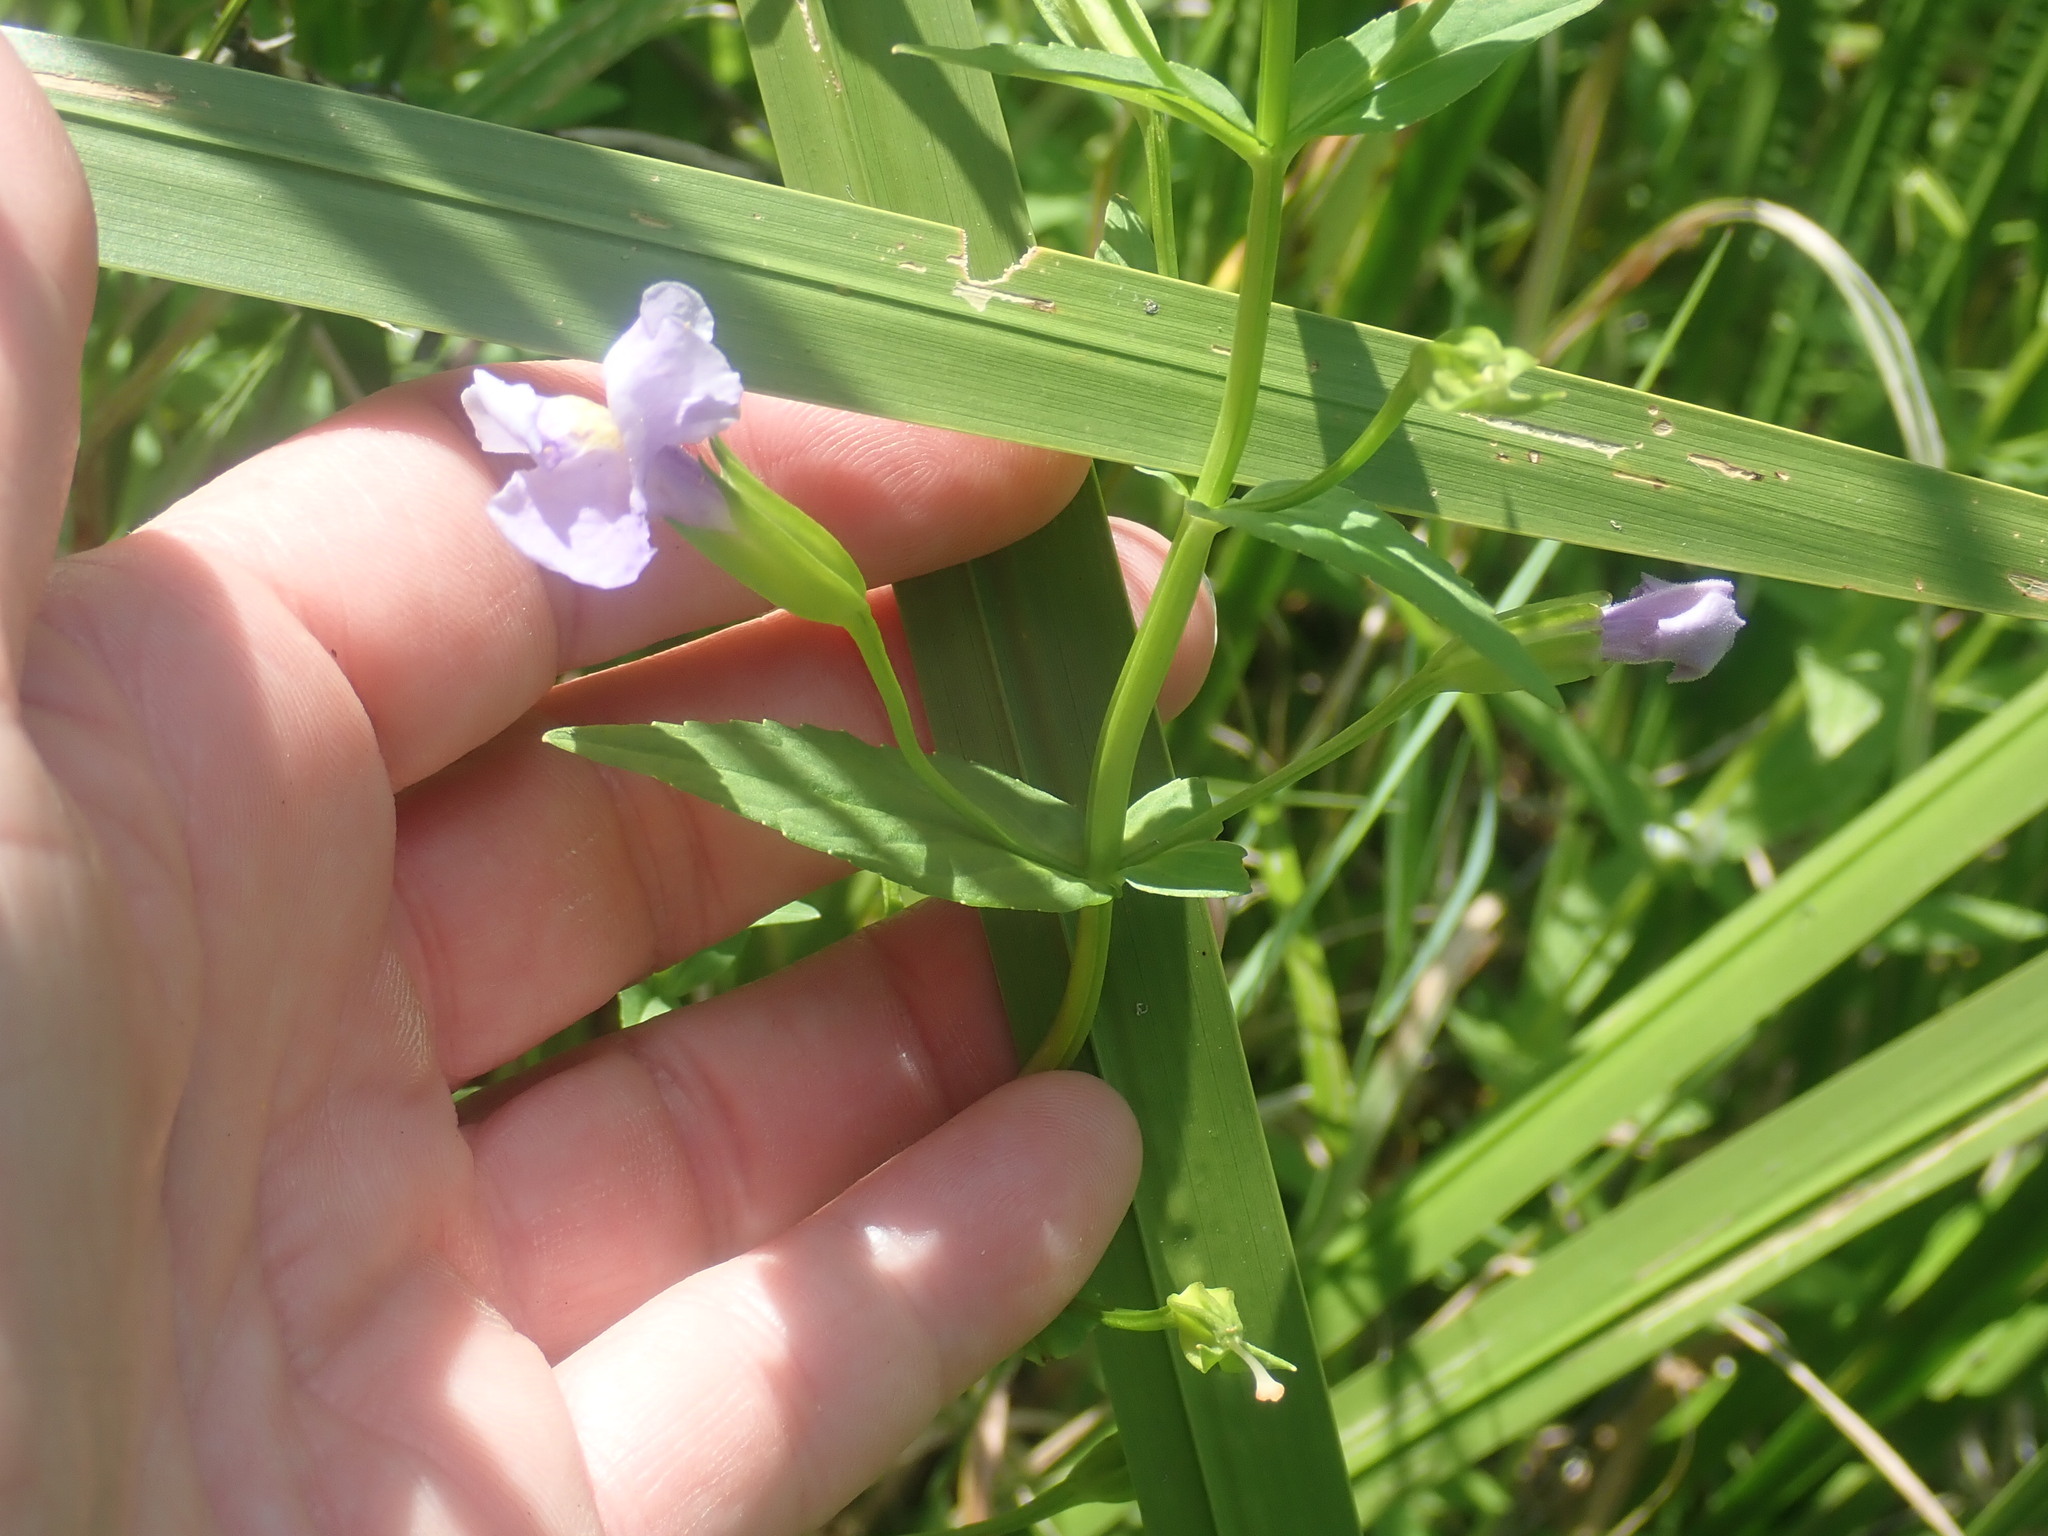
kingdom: Plantae
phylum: Tracheophyta
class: Magnoliopsida
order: Lamiales
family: Phrymaceae
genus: Mimulus
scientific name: Mimulus ringens
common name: Allegheny monkeyflower
